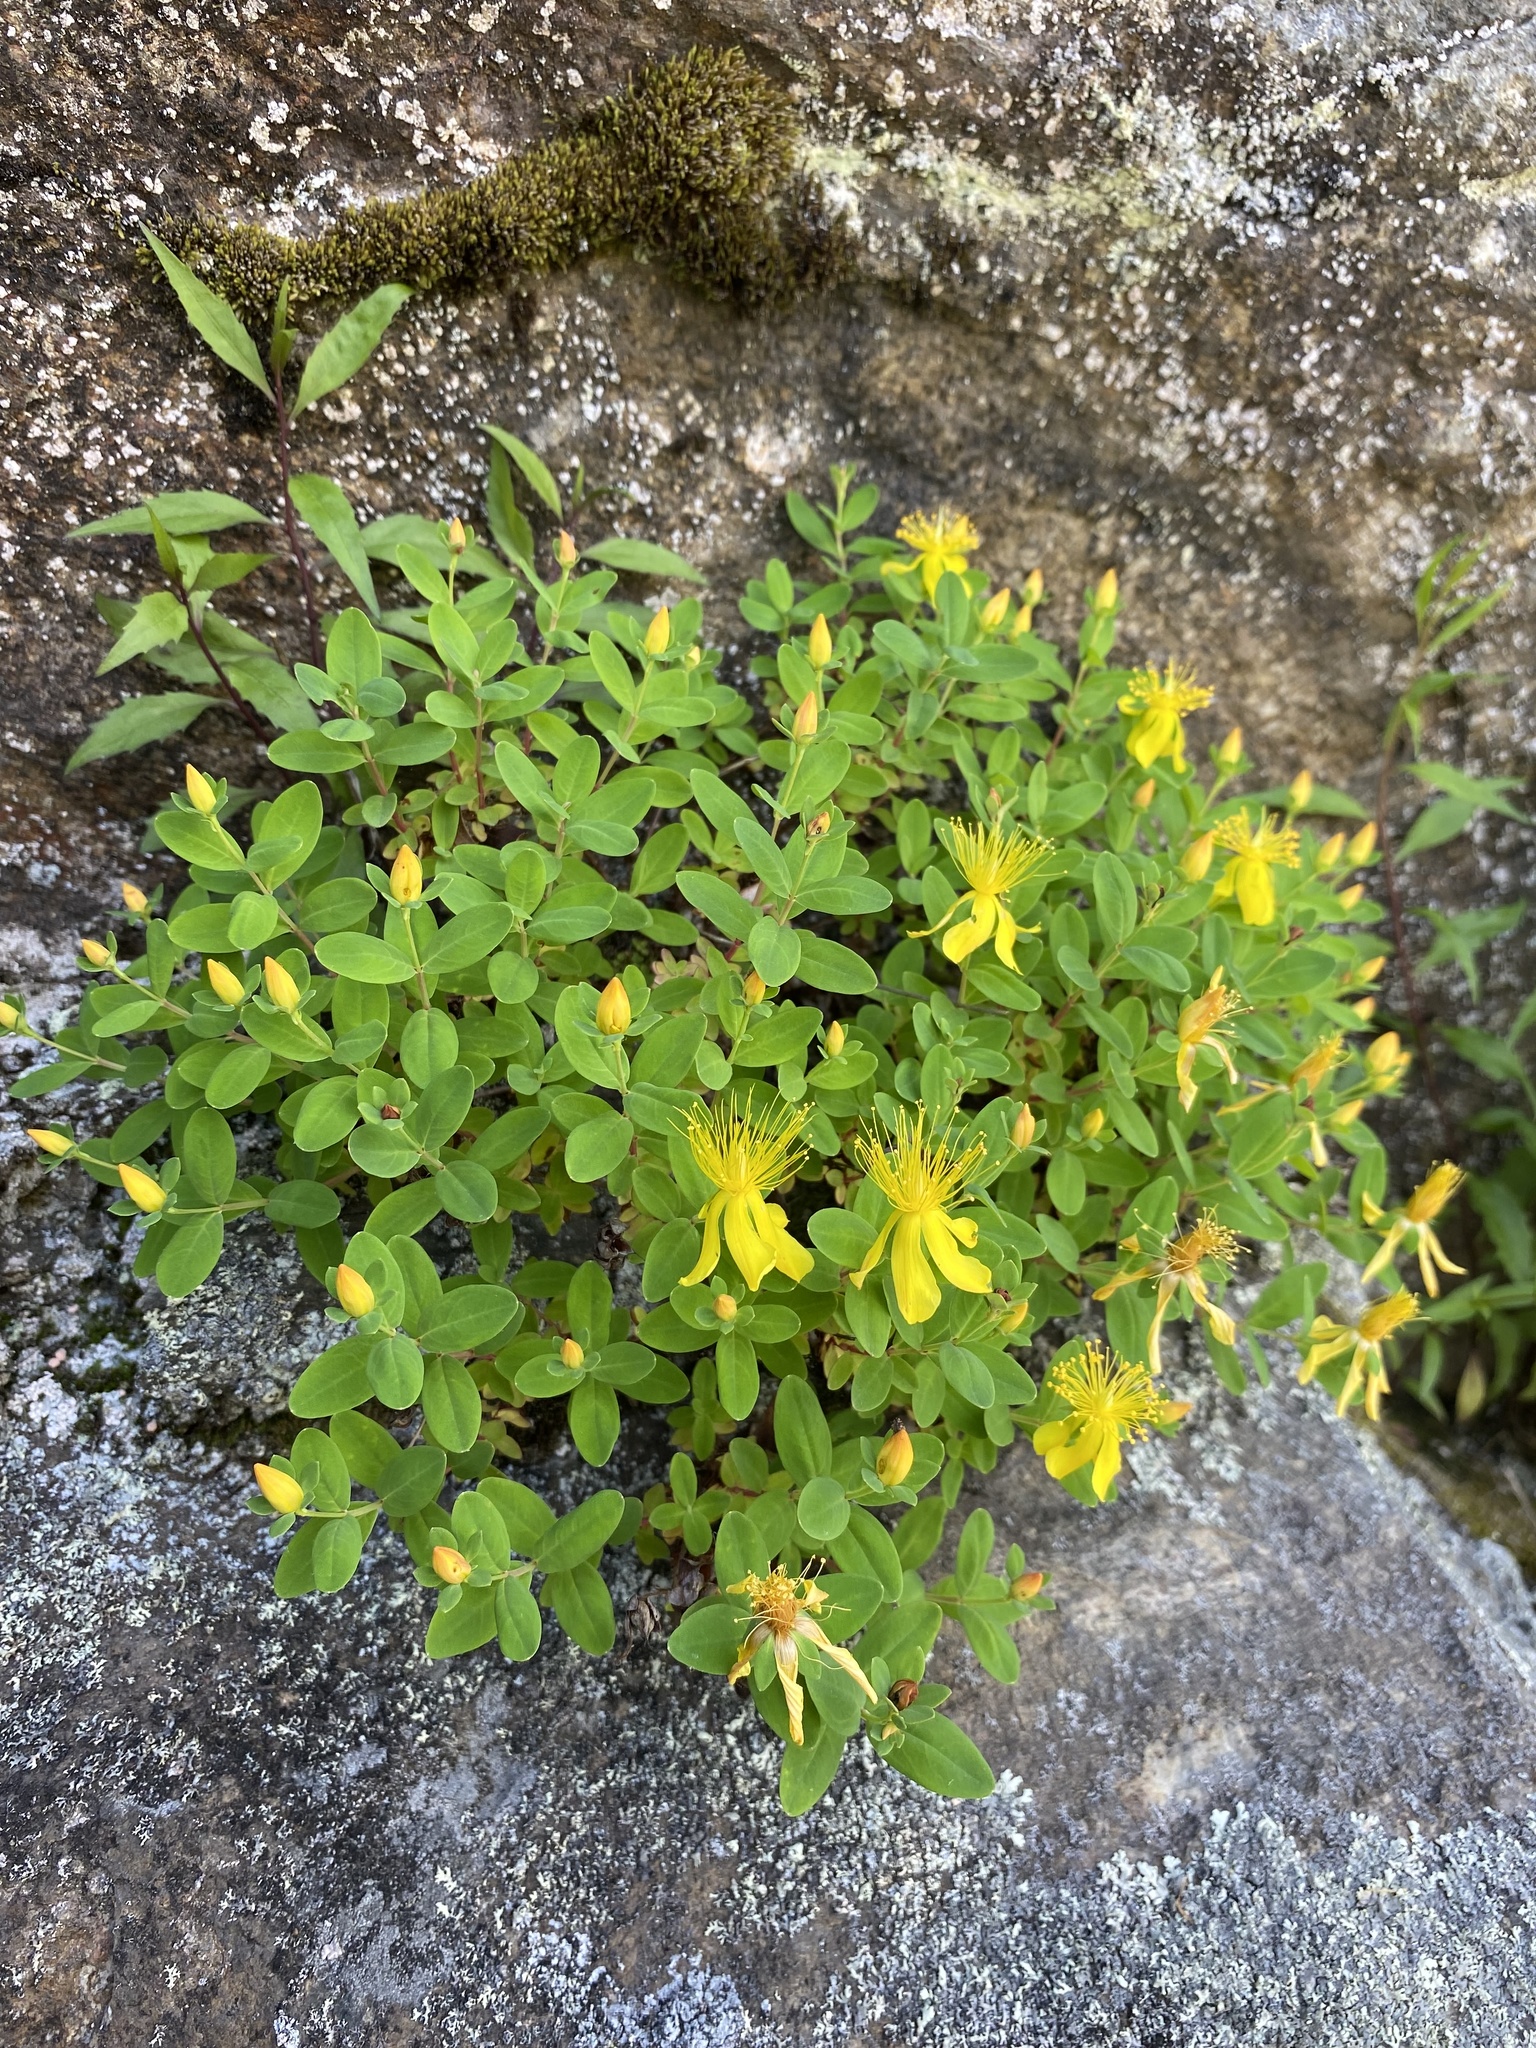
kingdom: Plantae
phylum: Tracheophyta
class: Magnoliopsida
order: Malpighiales
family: Hypericaceae
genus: Hypericum
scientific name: Hypericum buckleyi
